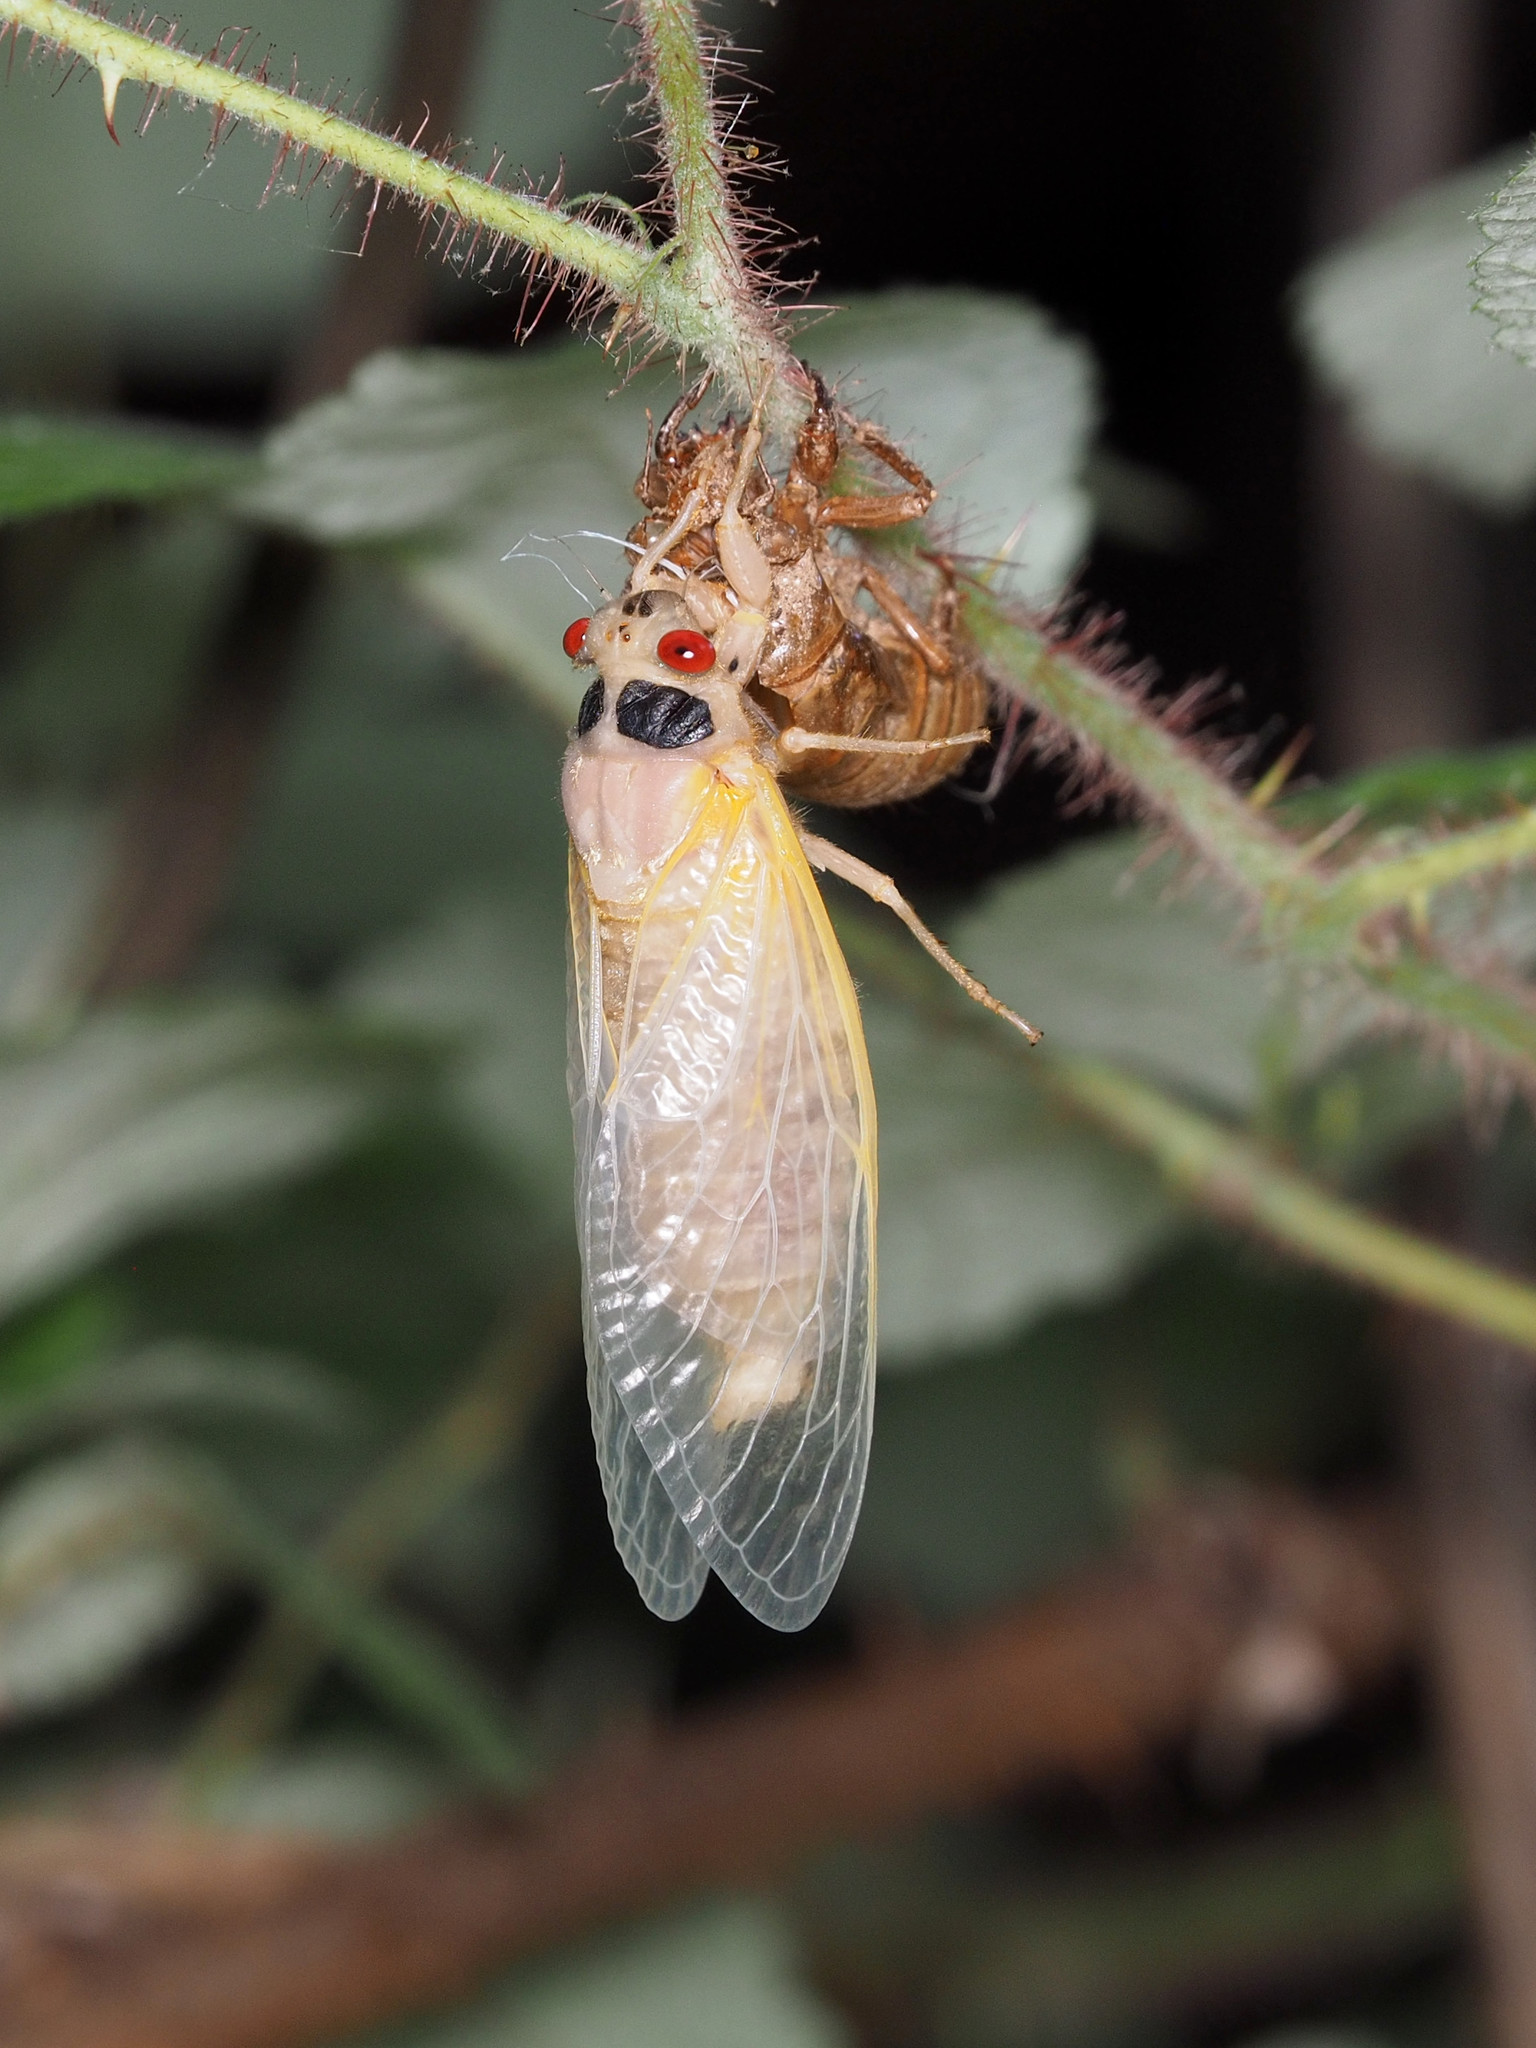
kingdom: Animalia
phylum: Arthropoda
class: Insecta
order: Hemiptera
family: Cicadidae
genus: Magicicada
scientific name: Magicicada
